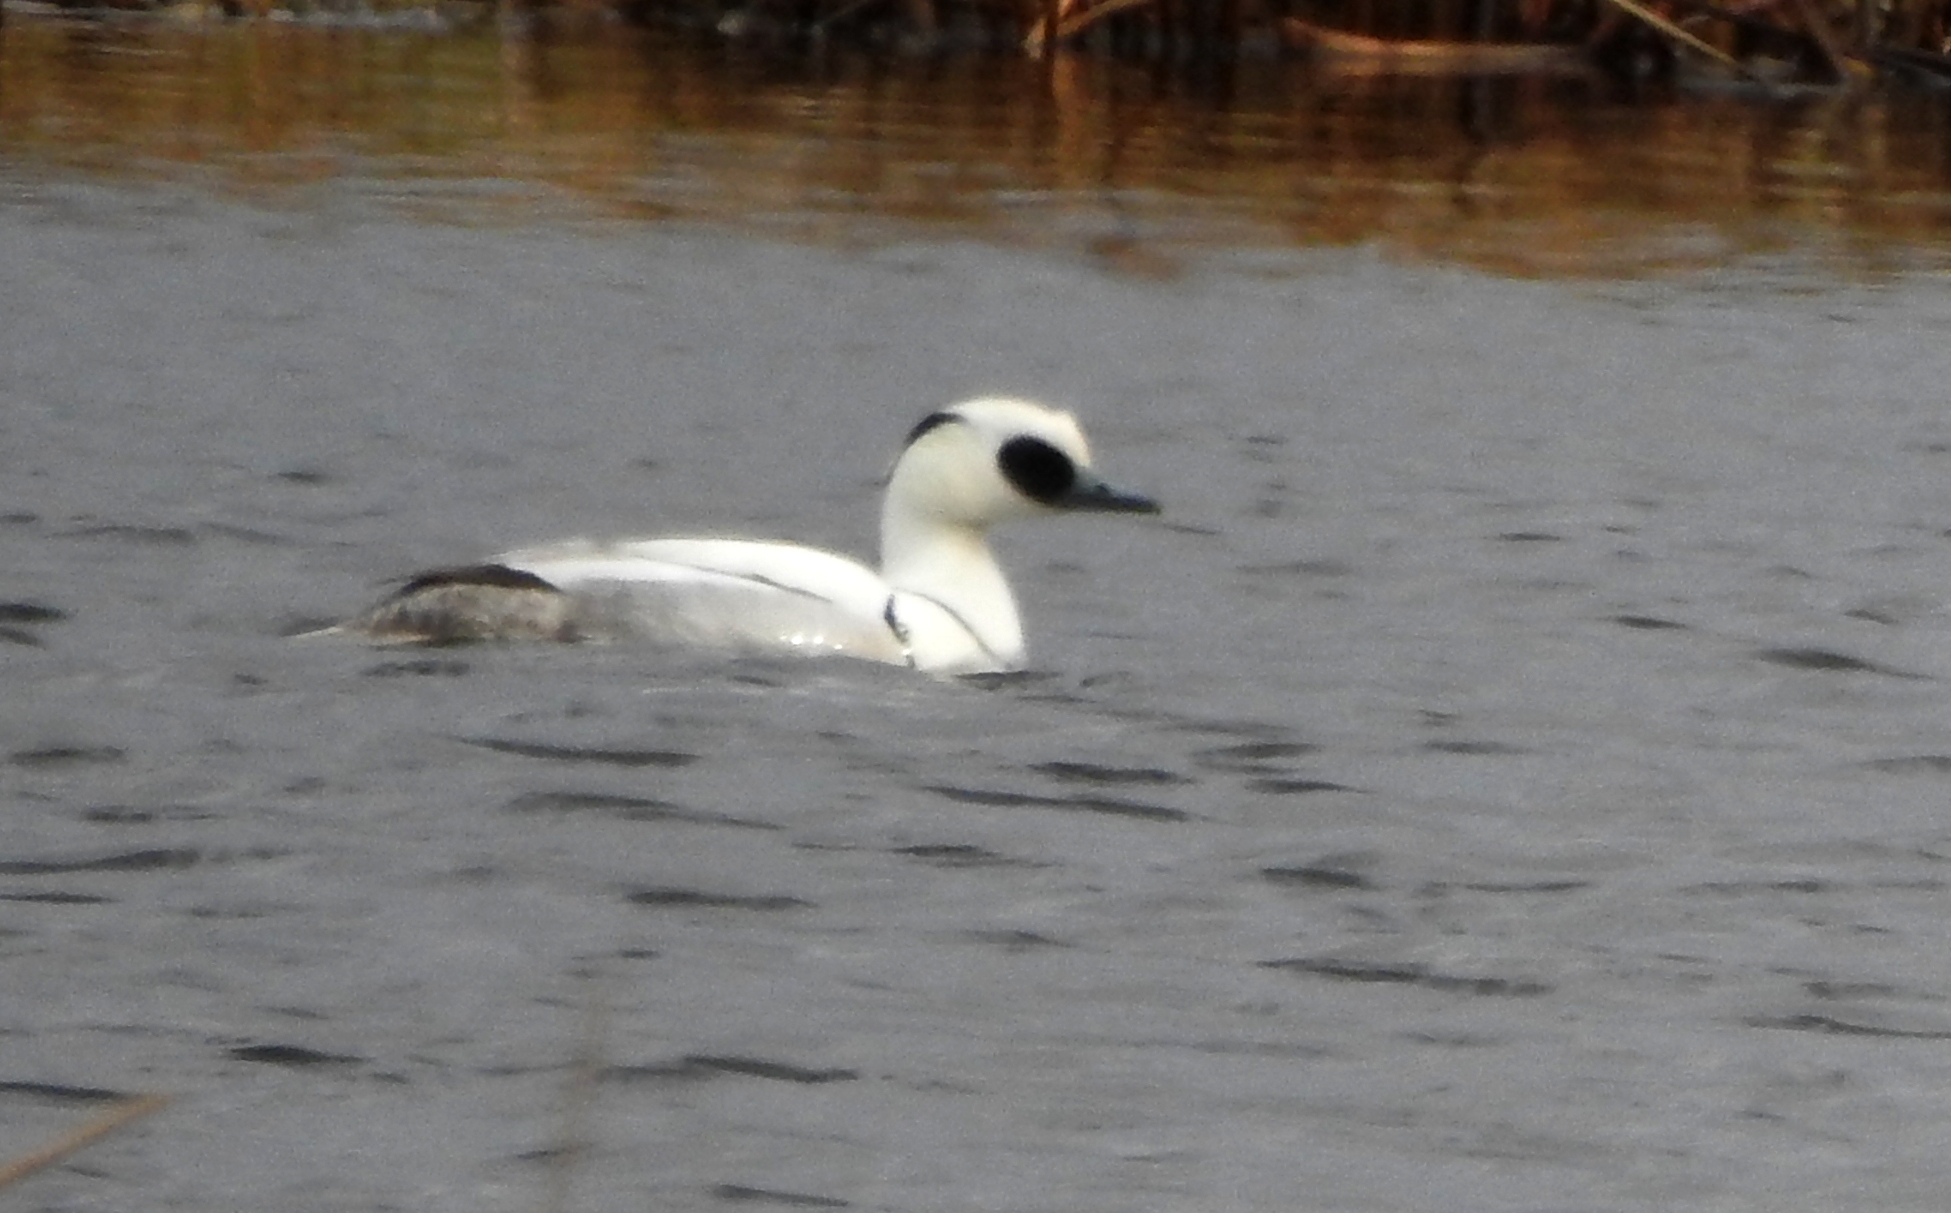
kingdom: Animalia
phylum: Chordata
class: Aves
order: Anseriformes
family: Anatidae
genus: Mergellus
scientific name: Mergellus albellus
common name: Smew
